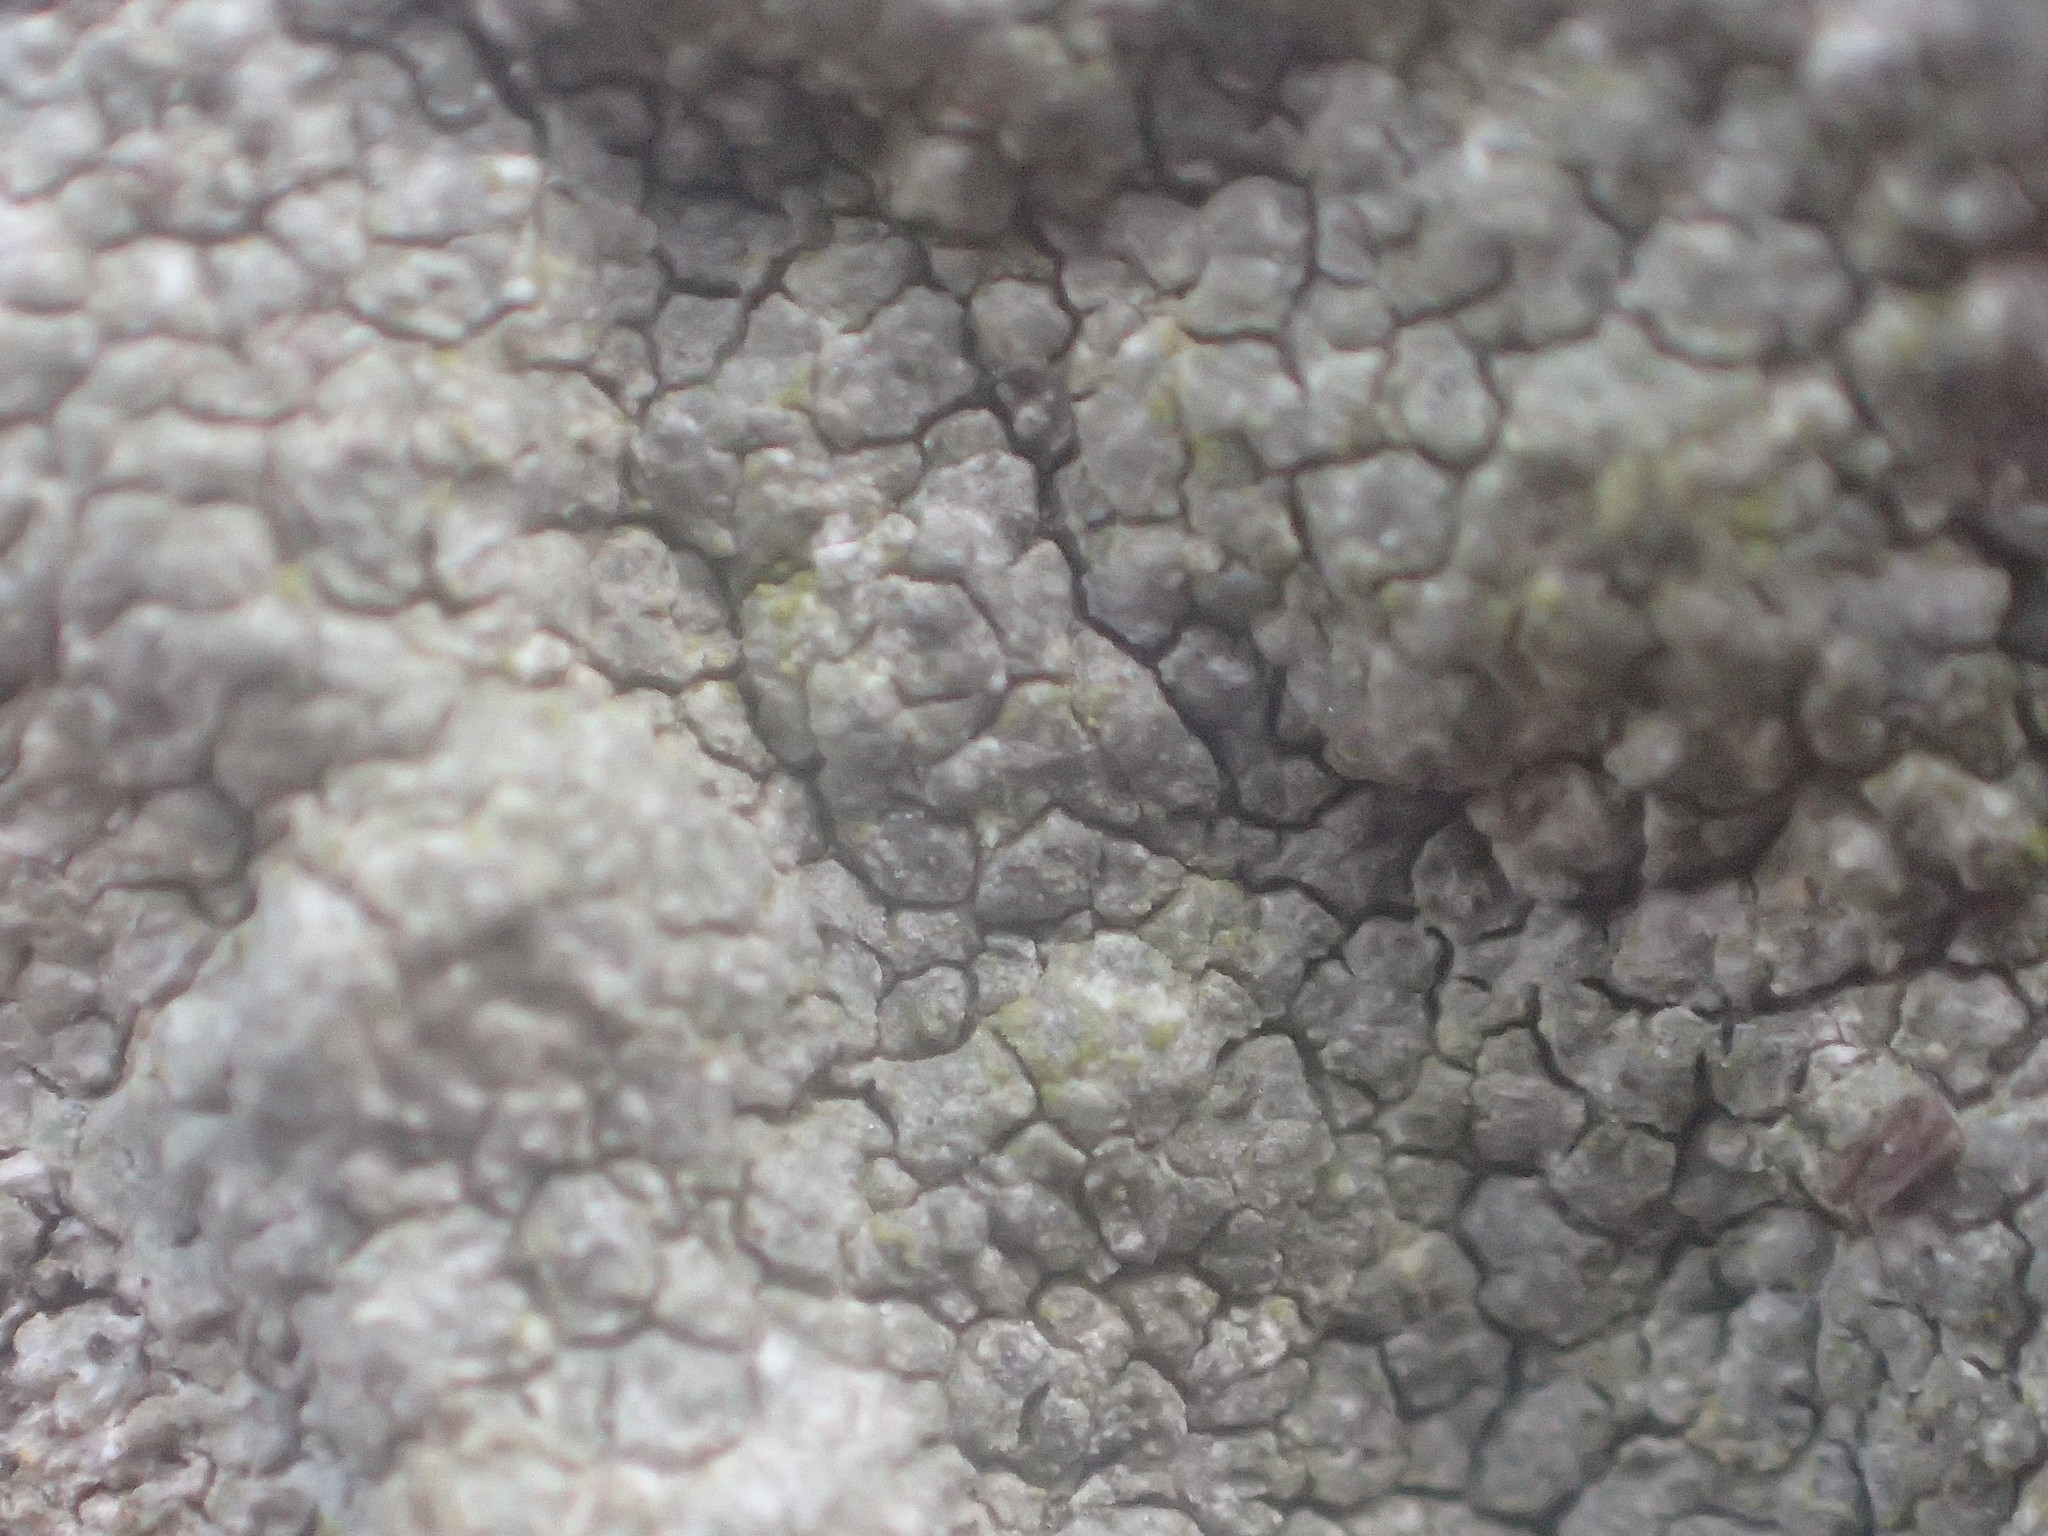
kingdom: Fungi
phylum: Ascomycota
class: Lecanoromycetes
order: Ostropales
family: Phlyctidaceae
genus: Phlyctis
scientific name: Phlyctis petraea
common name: Eggshell rock blaze
